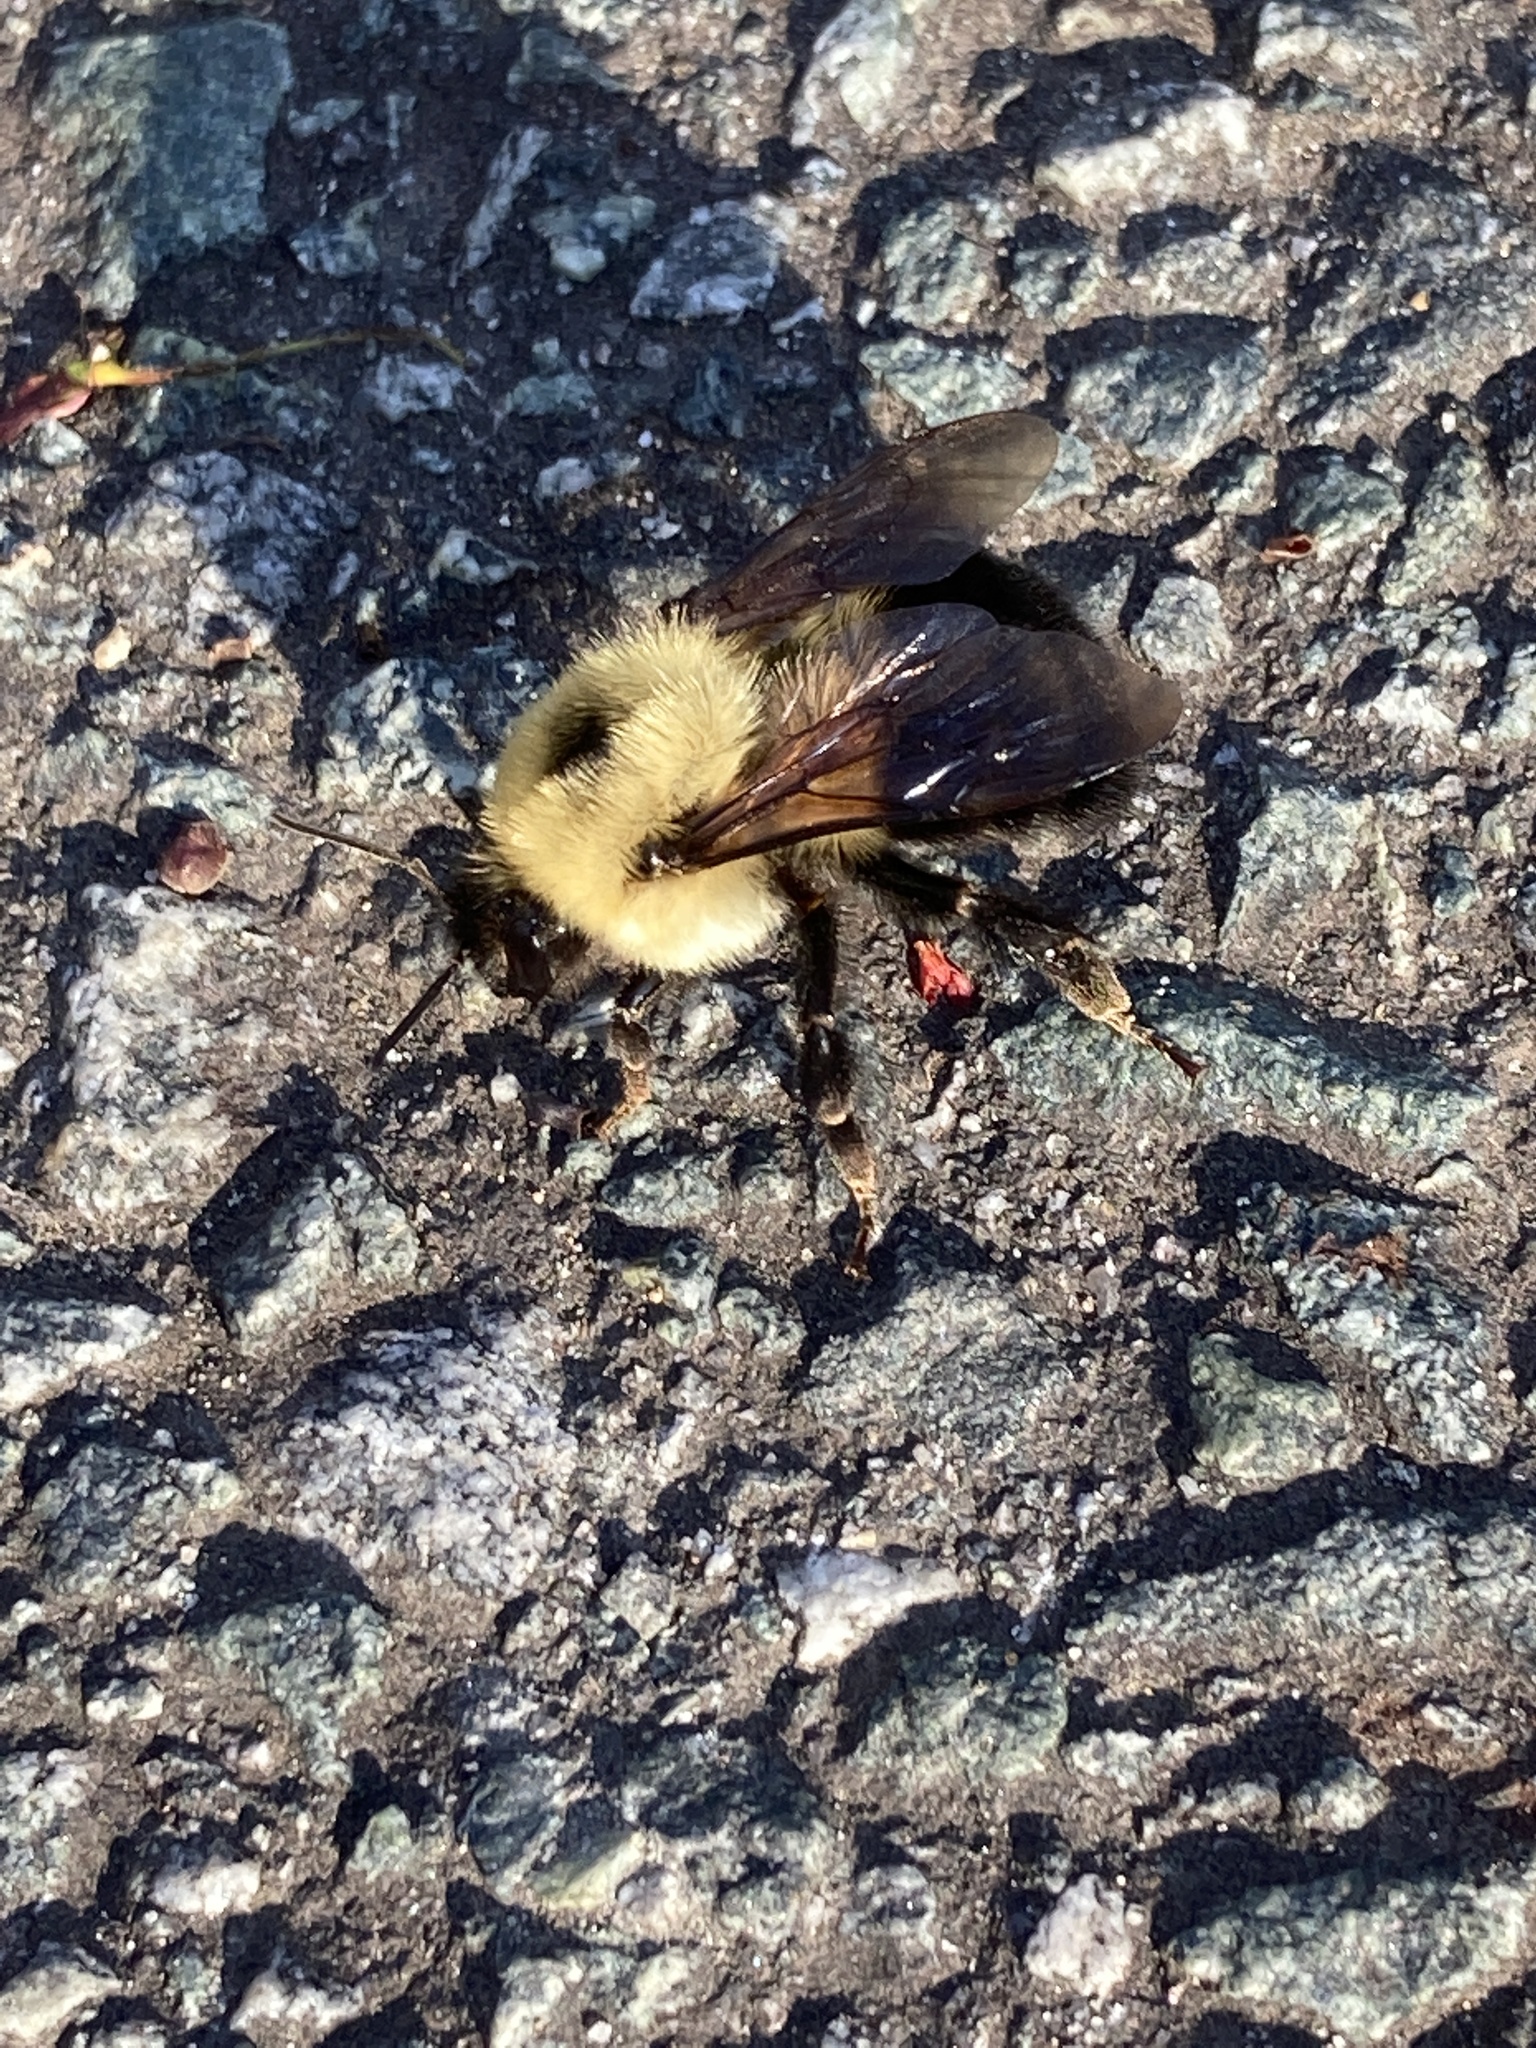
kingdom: Animalia
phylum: Arthropoda
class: Insecta
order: Hymenoptera
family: Apidae
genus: Bombus
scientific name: Bombus bimaculatus
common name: Two-spotted bumble bee
